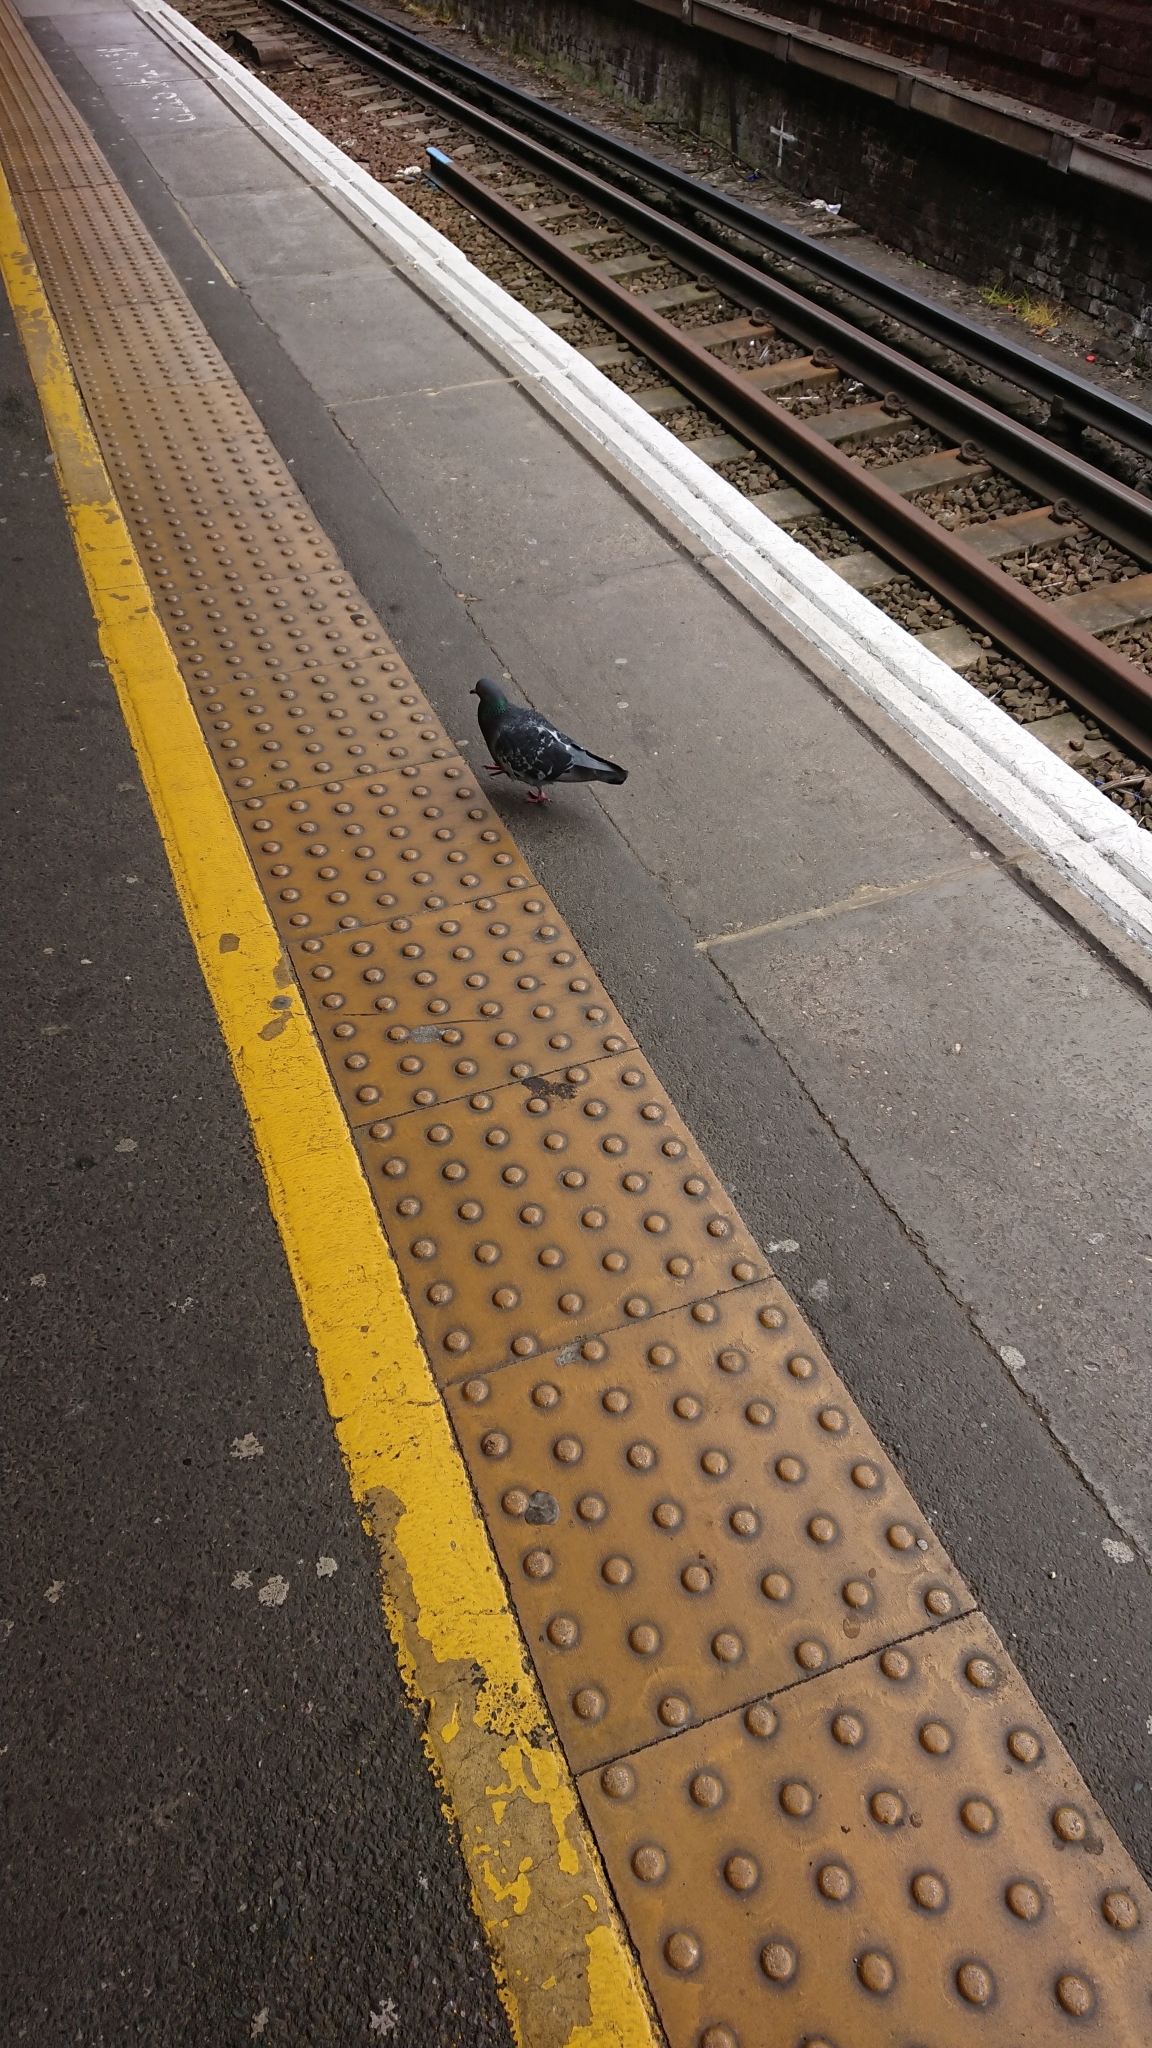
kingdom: Animalia
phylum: Chordata
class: Aves
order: Columbiformes
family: Columbidae
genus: Columba
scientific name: Columba livia
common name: Rock pigeon
